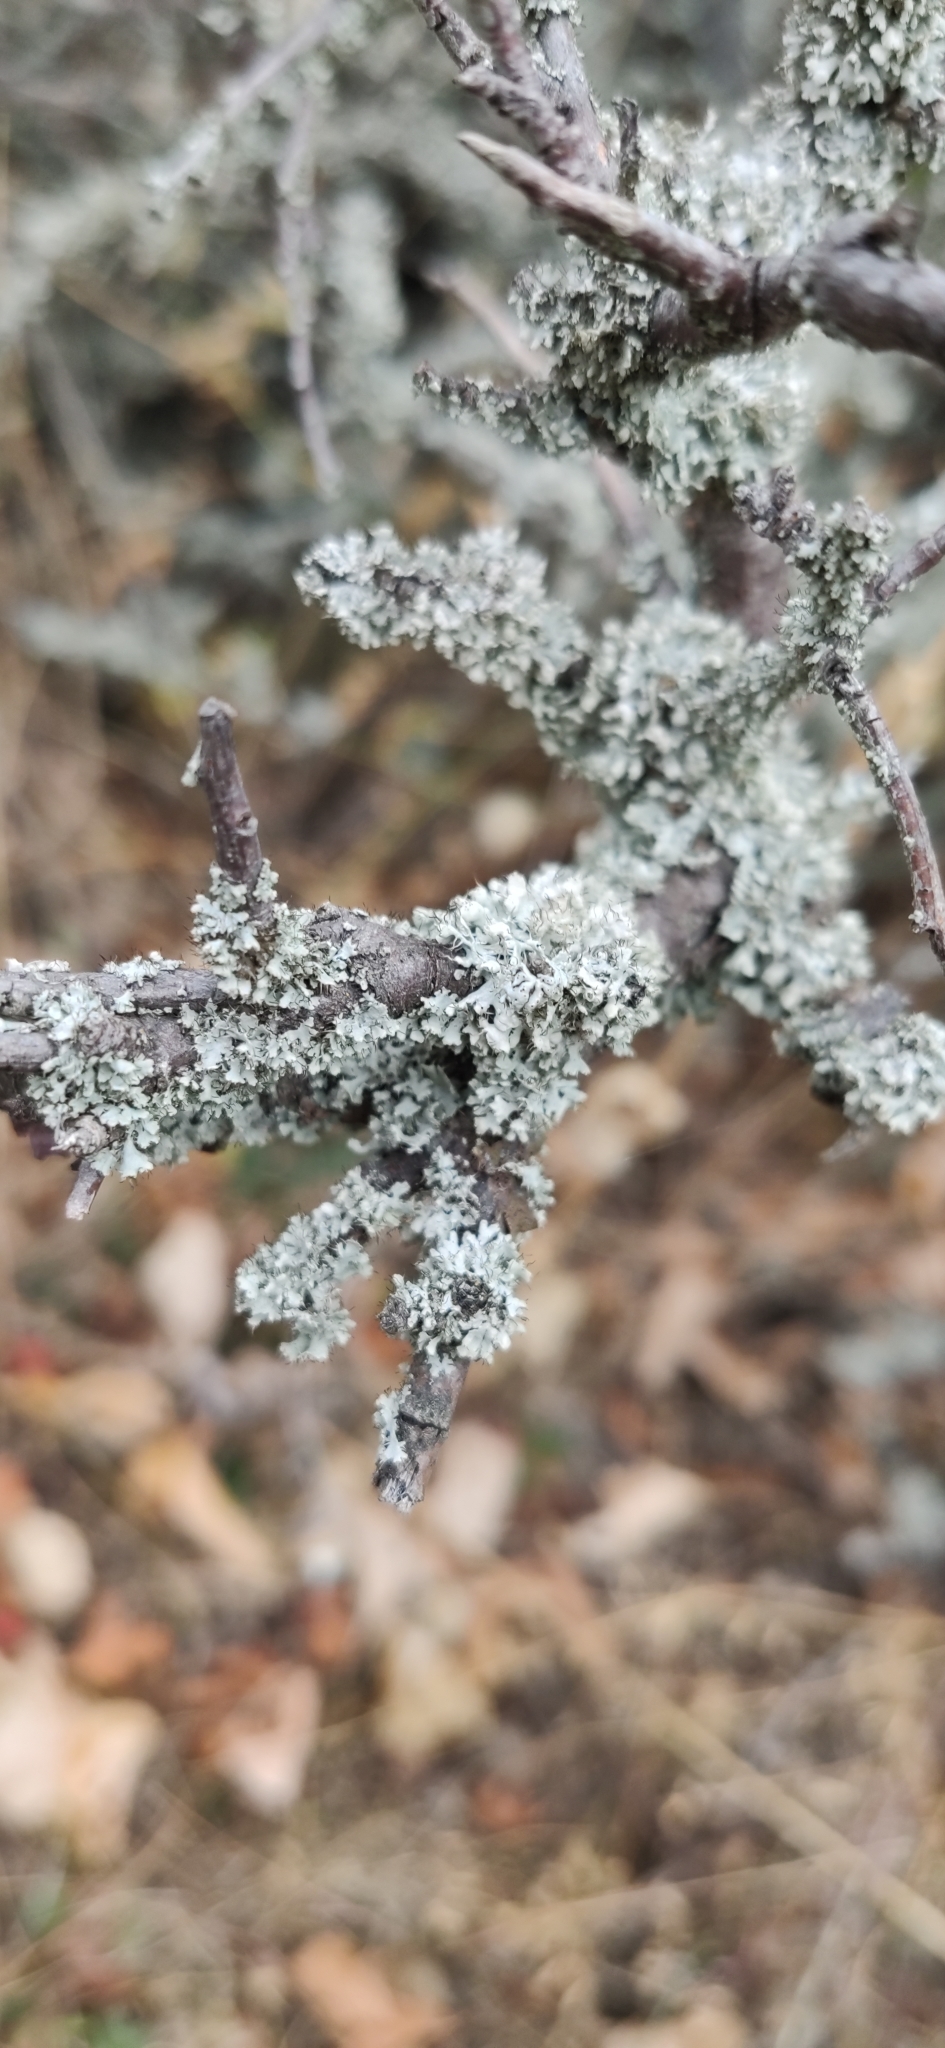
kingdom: Fungi
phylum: Ascomycota
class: Lecanoromycetes
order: Caliciales
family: Physciaceae
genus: Physcia
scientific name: Physcia adscendens
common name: Hooded rosette lichen
